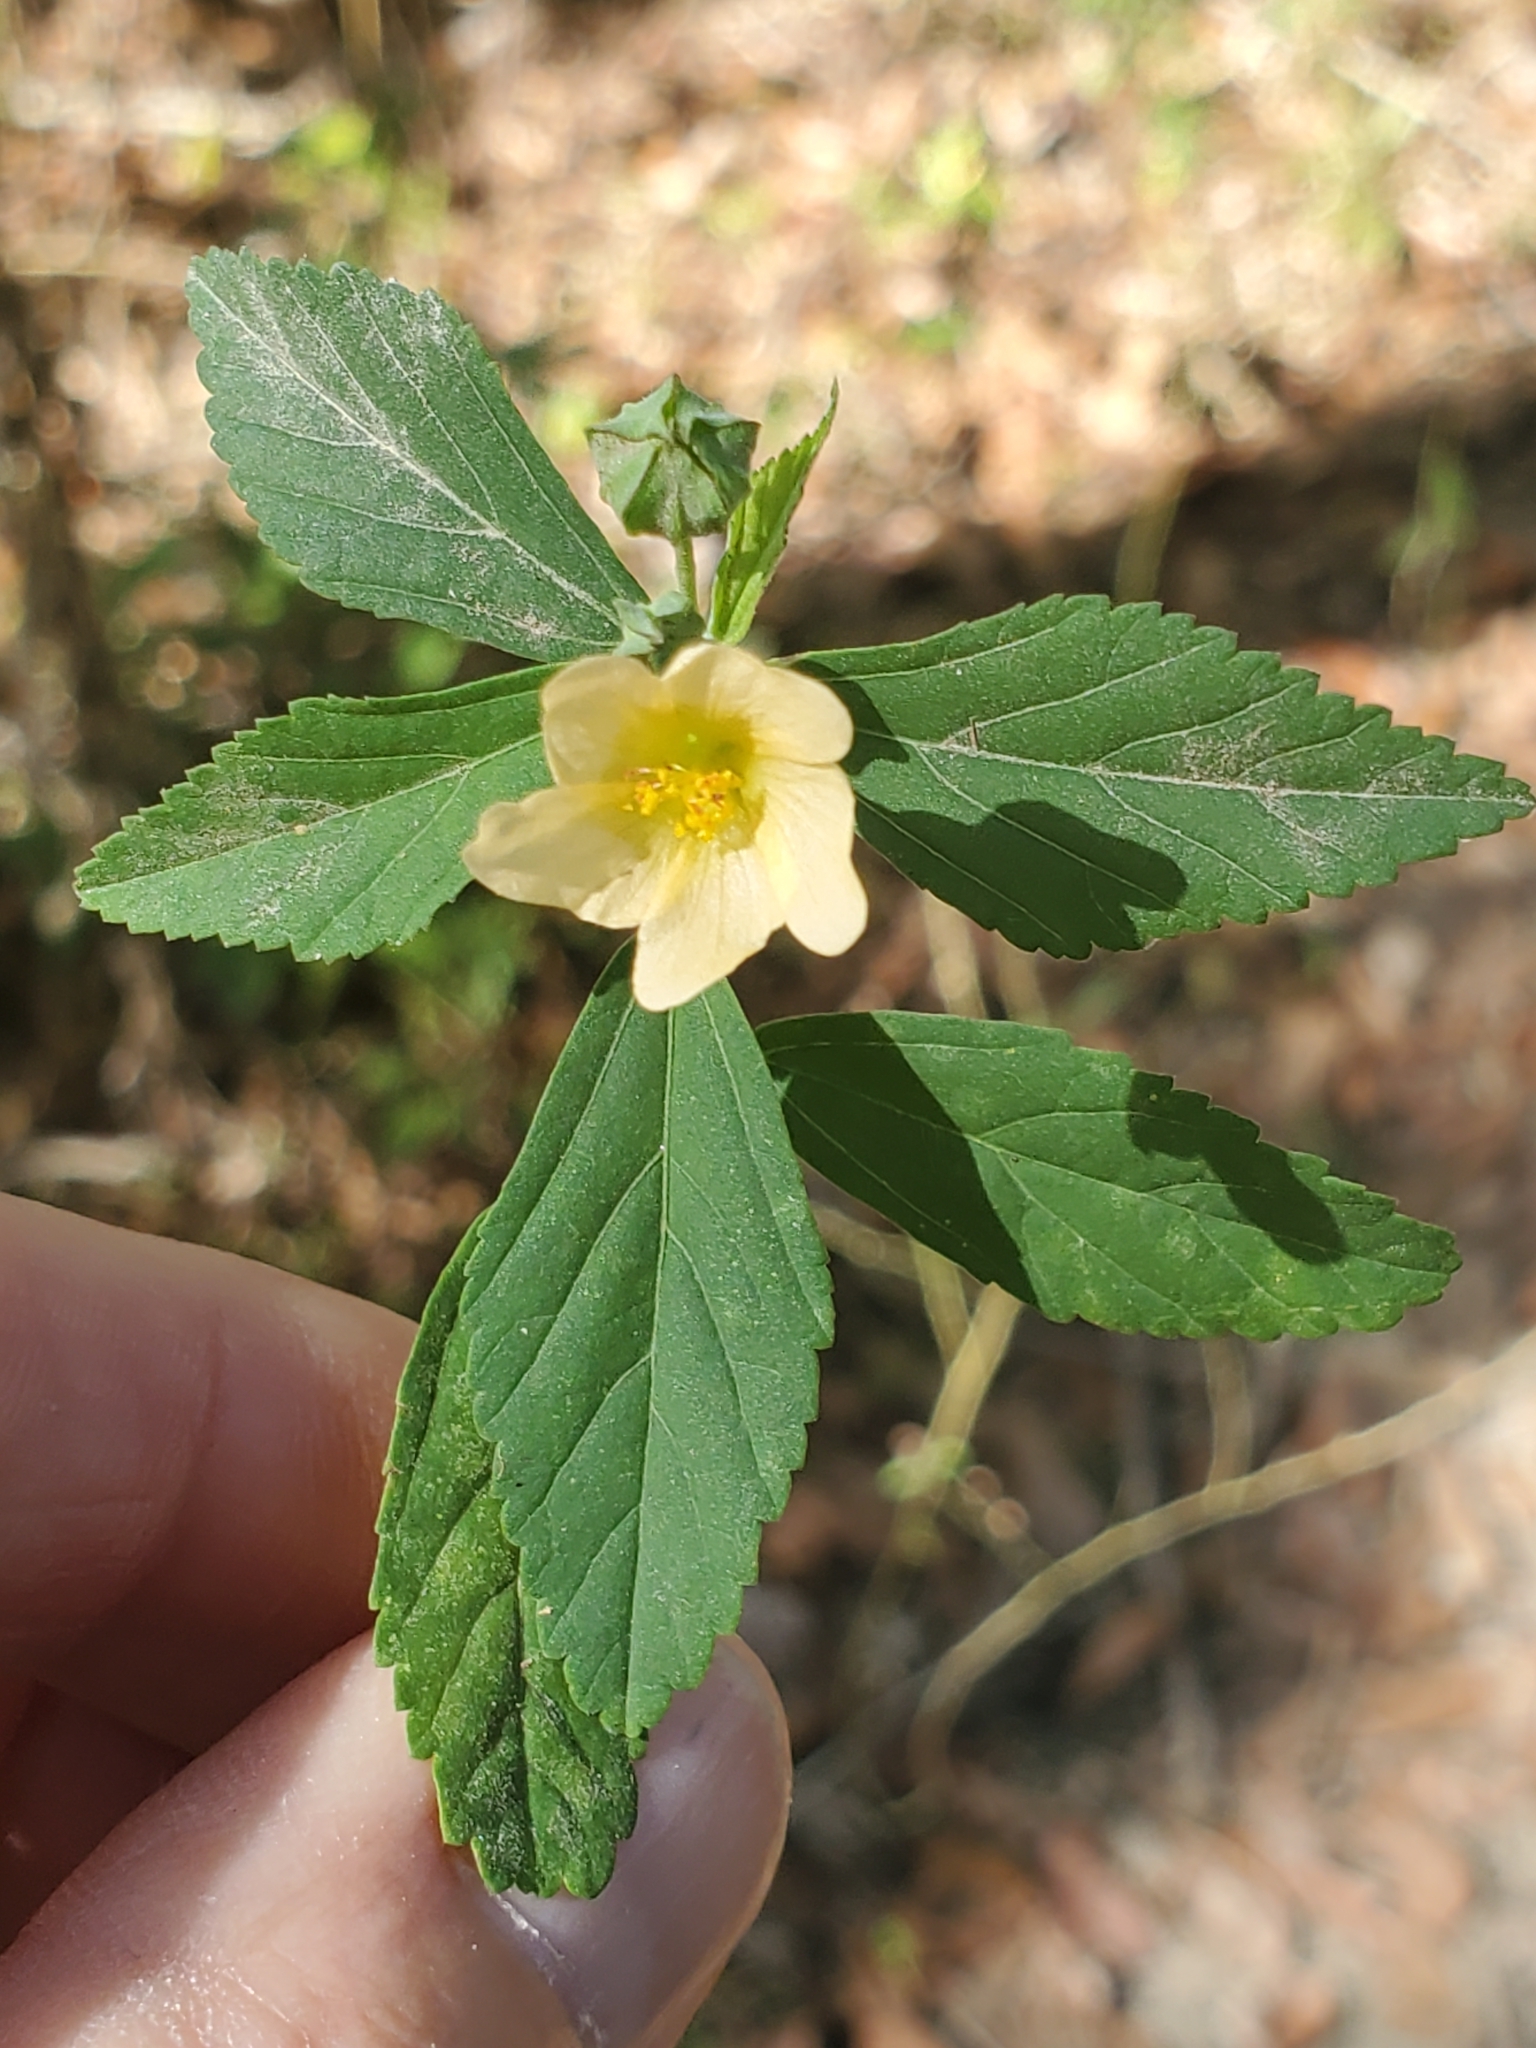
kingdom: Plantae
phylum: Tracheophyta
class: Magnoliopsida
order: Malvales
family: Malvaceae
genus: Sida
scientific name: Sida rhombifolia
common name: Queensland-hemp
